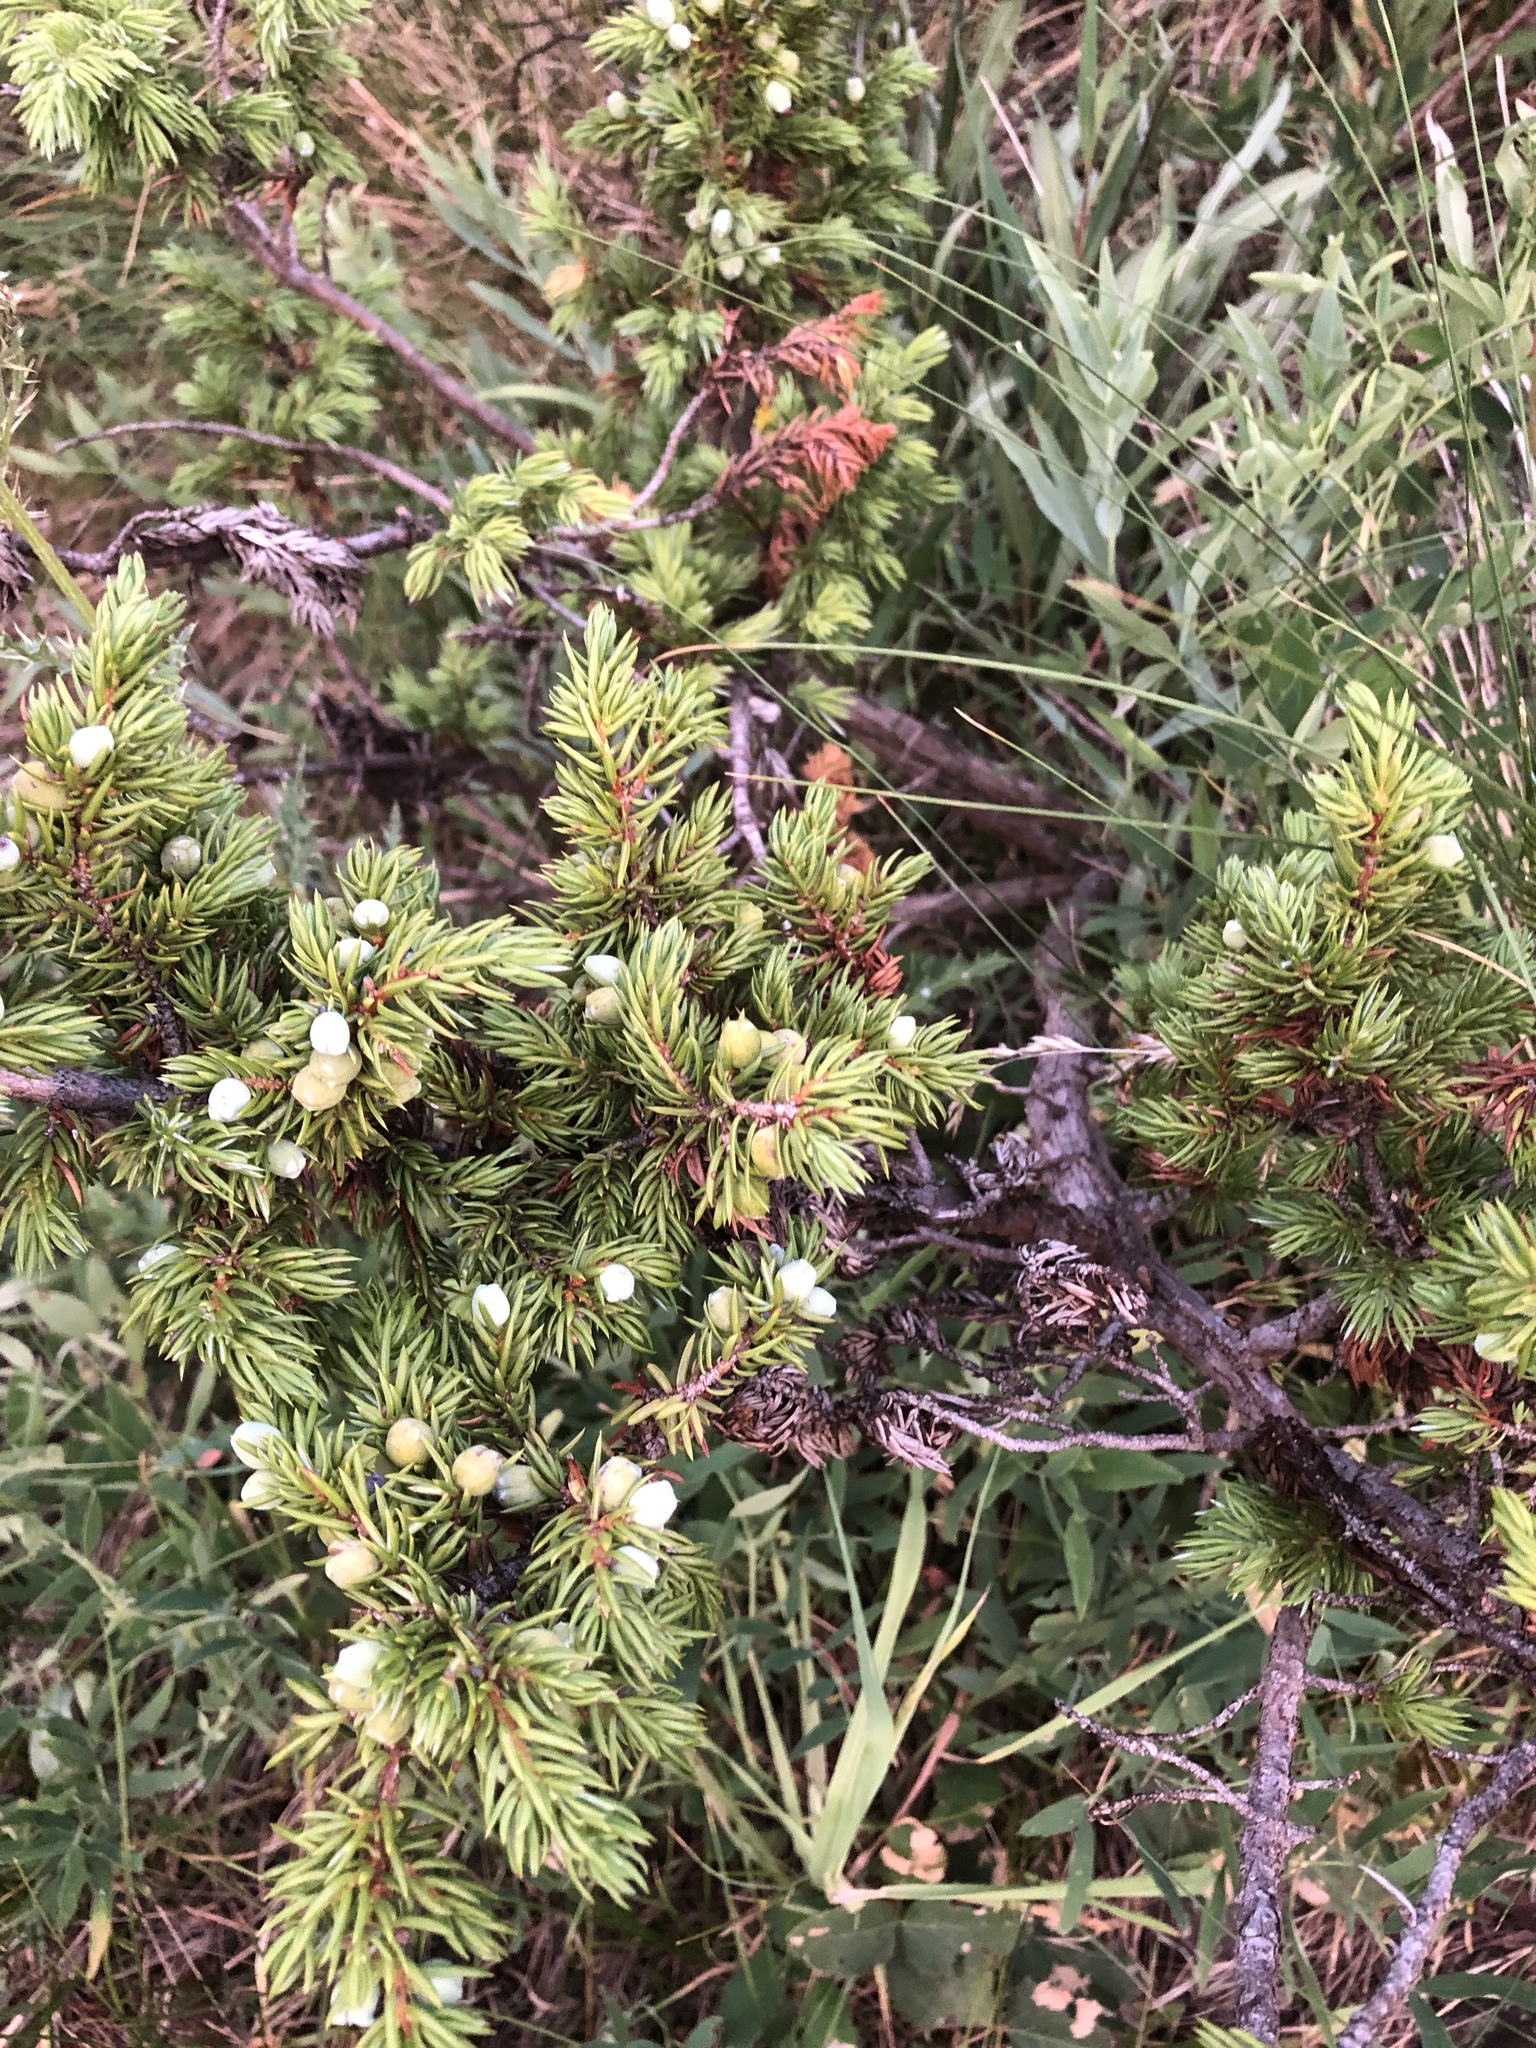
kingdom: Plantae
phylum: Tracheophyta
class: Pinopsida
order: Pinales
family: Cupressaceae
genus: Juniperus
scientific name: Juniperus communis
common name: Common juniper
